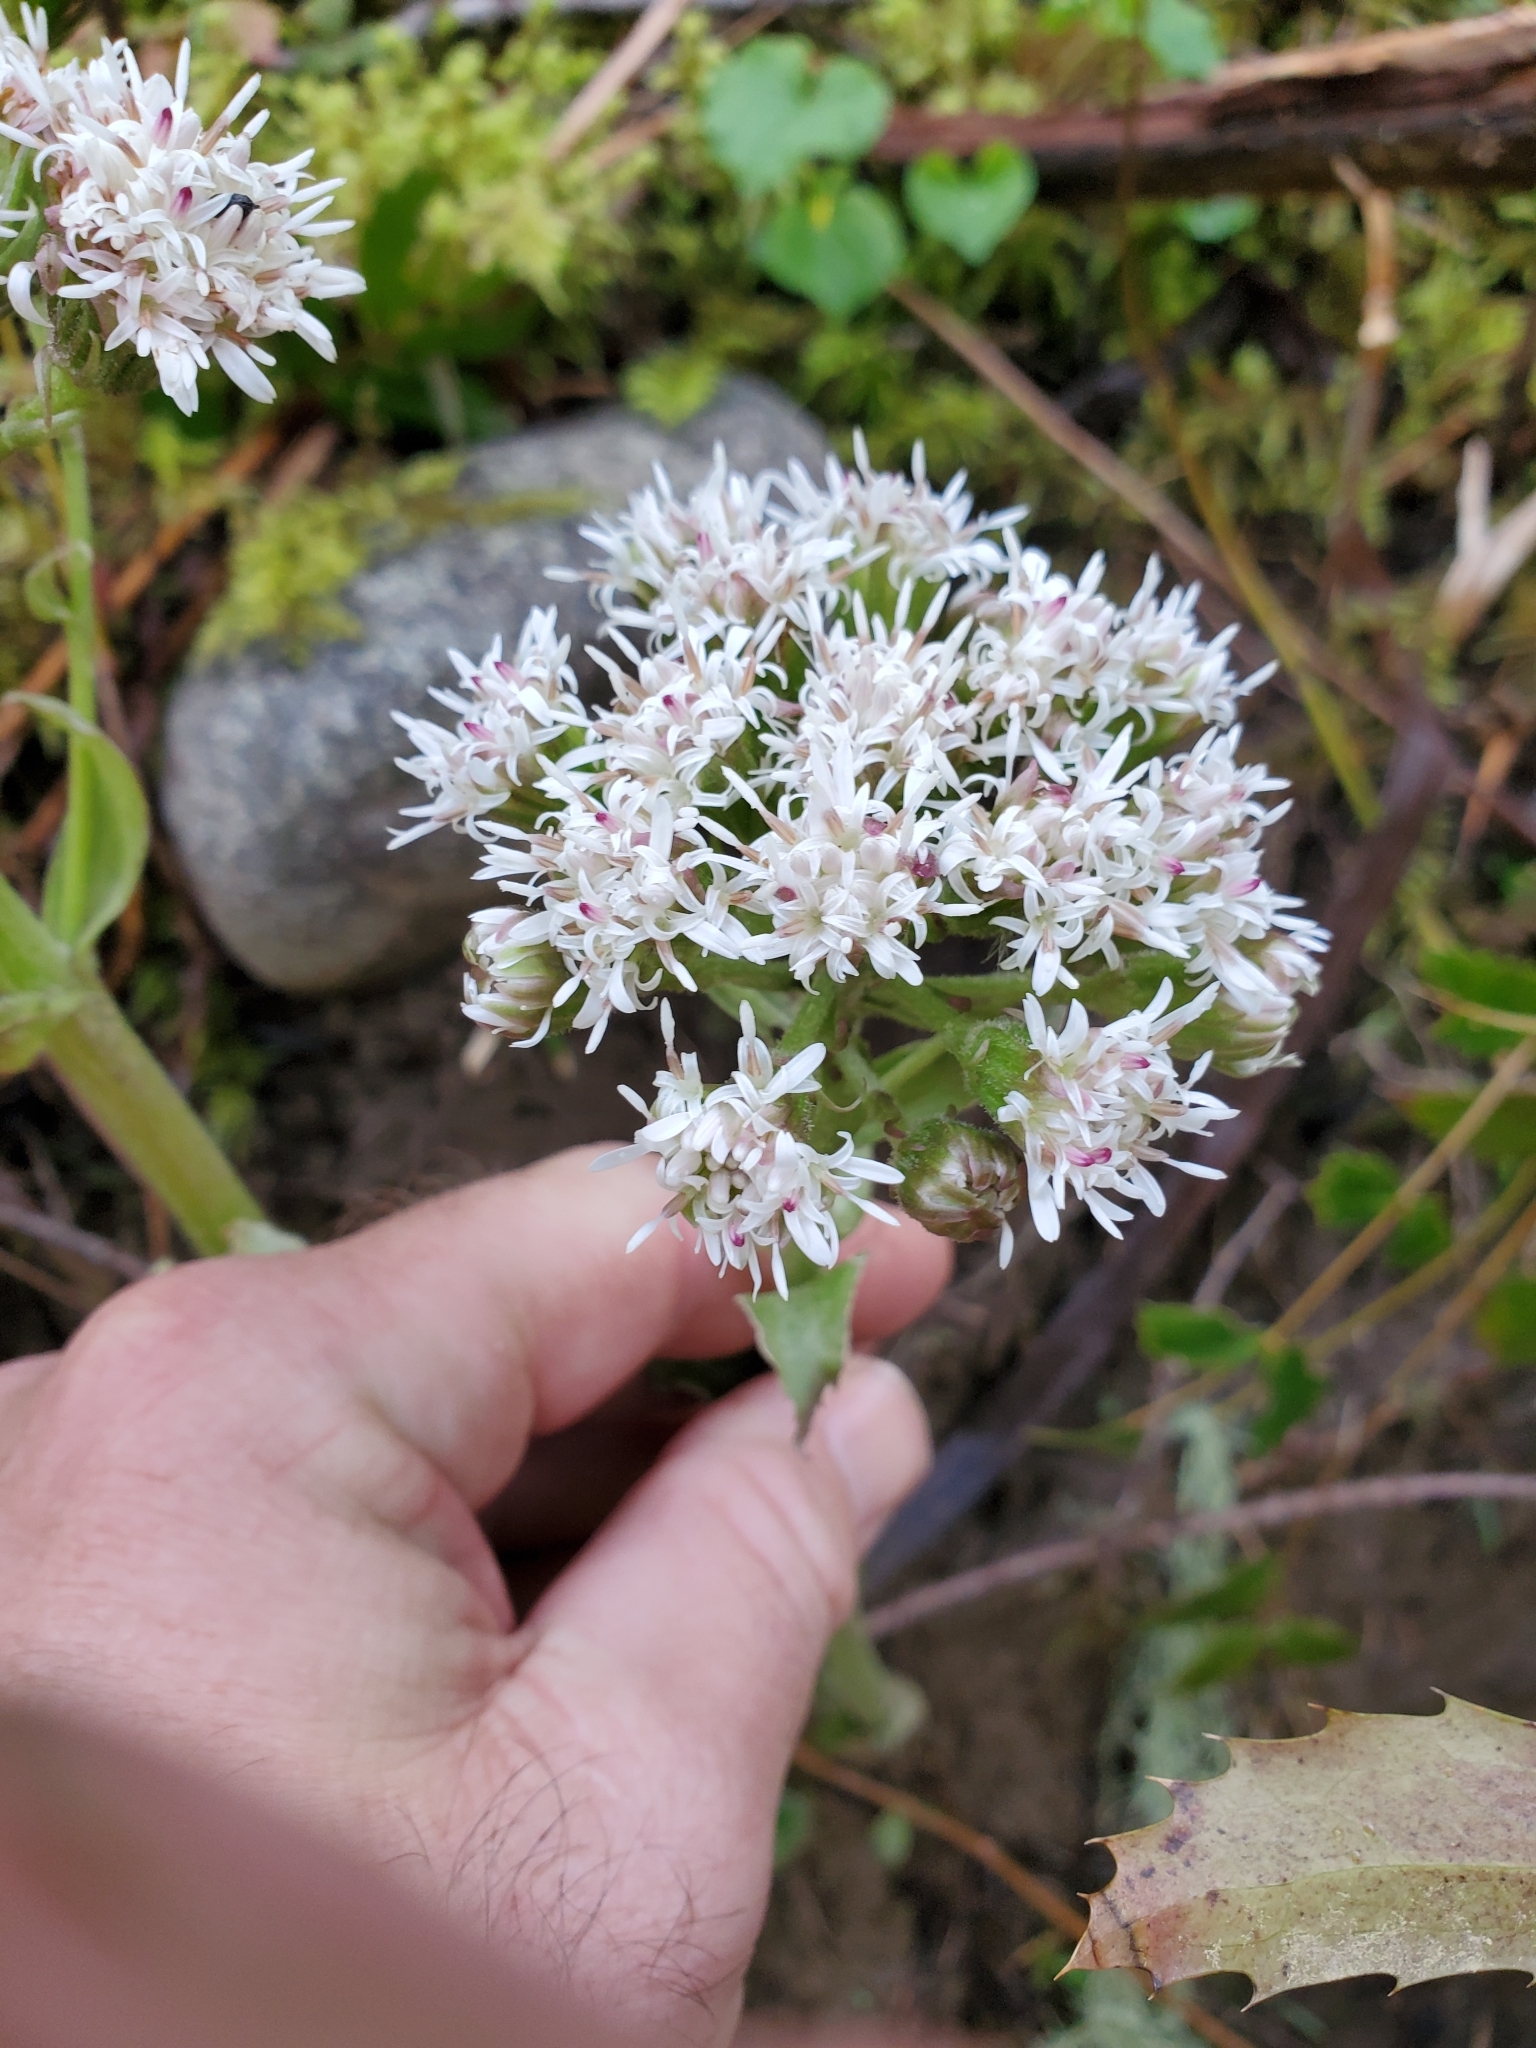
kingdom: Plantae
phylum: Tracheophyta
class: Magnoliopsida
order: Asterales
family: Asteraceae
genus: Petasites
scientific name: Petasites frigidus
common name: Arctic butterbur
